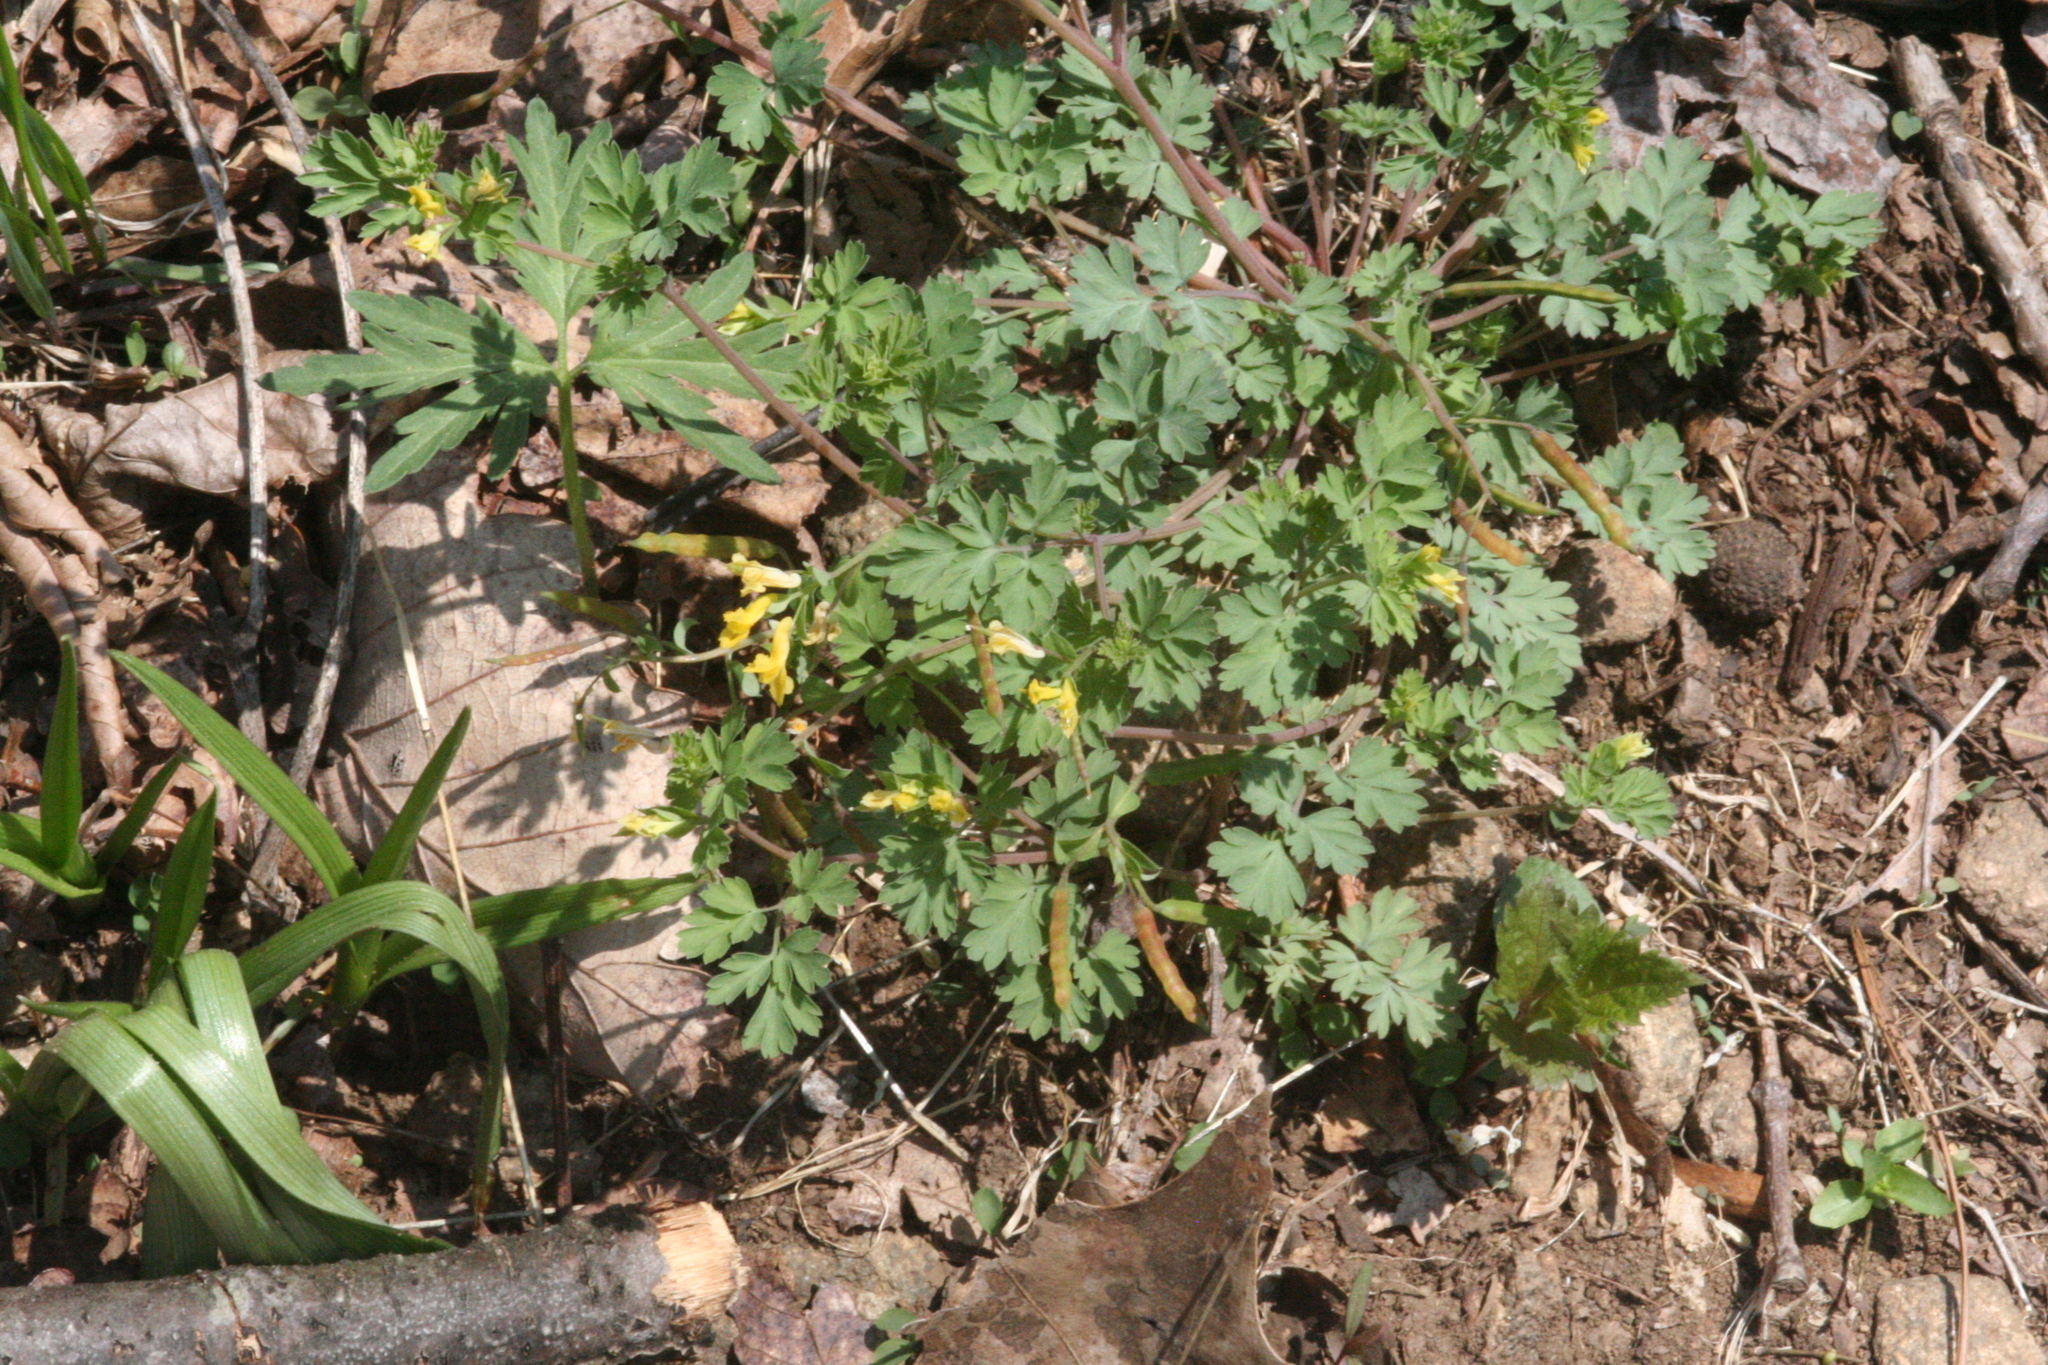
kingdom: Plantae
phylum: Tracheophyta
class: Magnoliopsida
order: Ranunculales
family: Papaveraceae
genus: Corydalis
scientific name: Corydalis flavula
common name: Yellow corydalis
